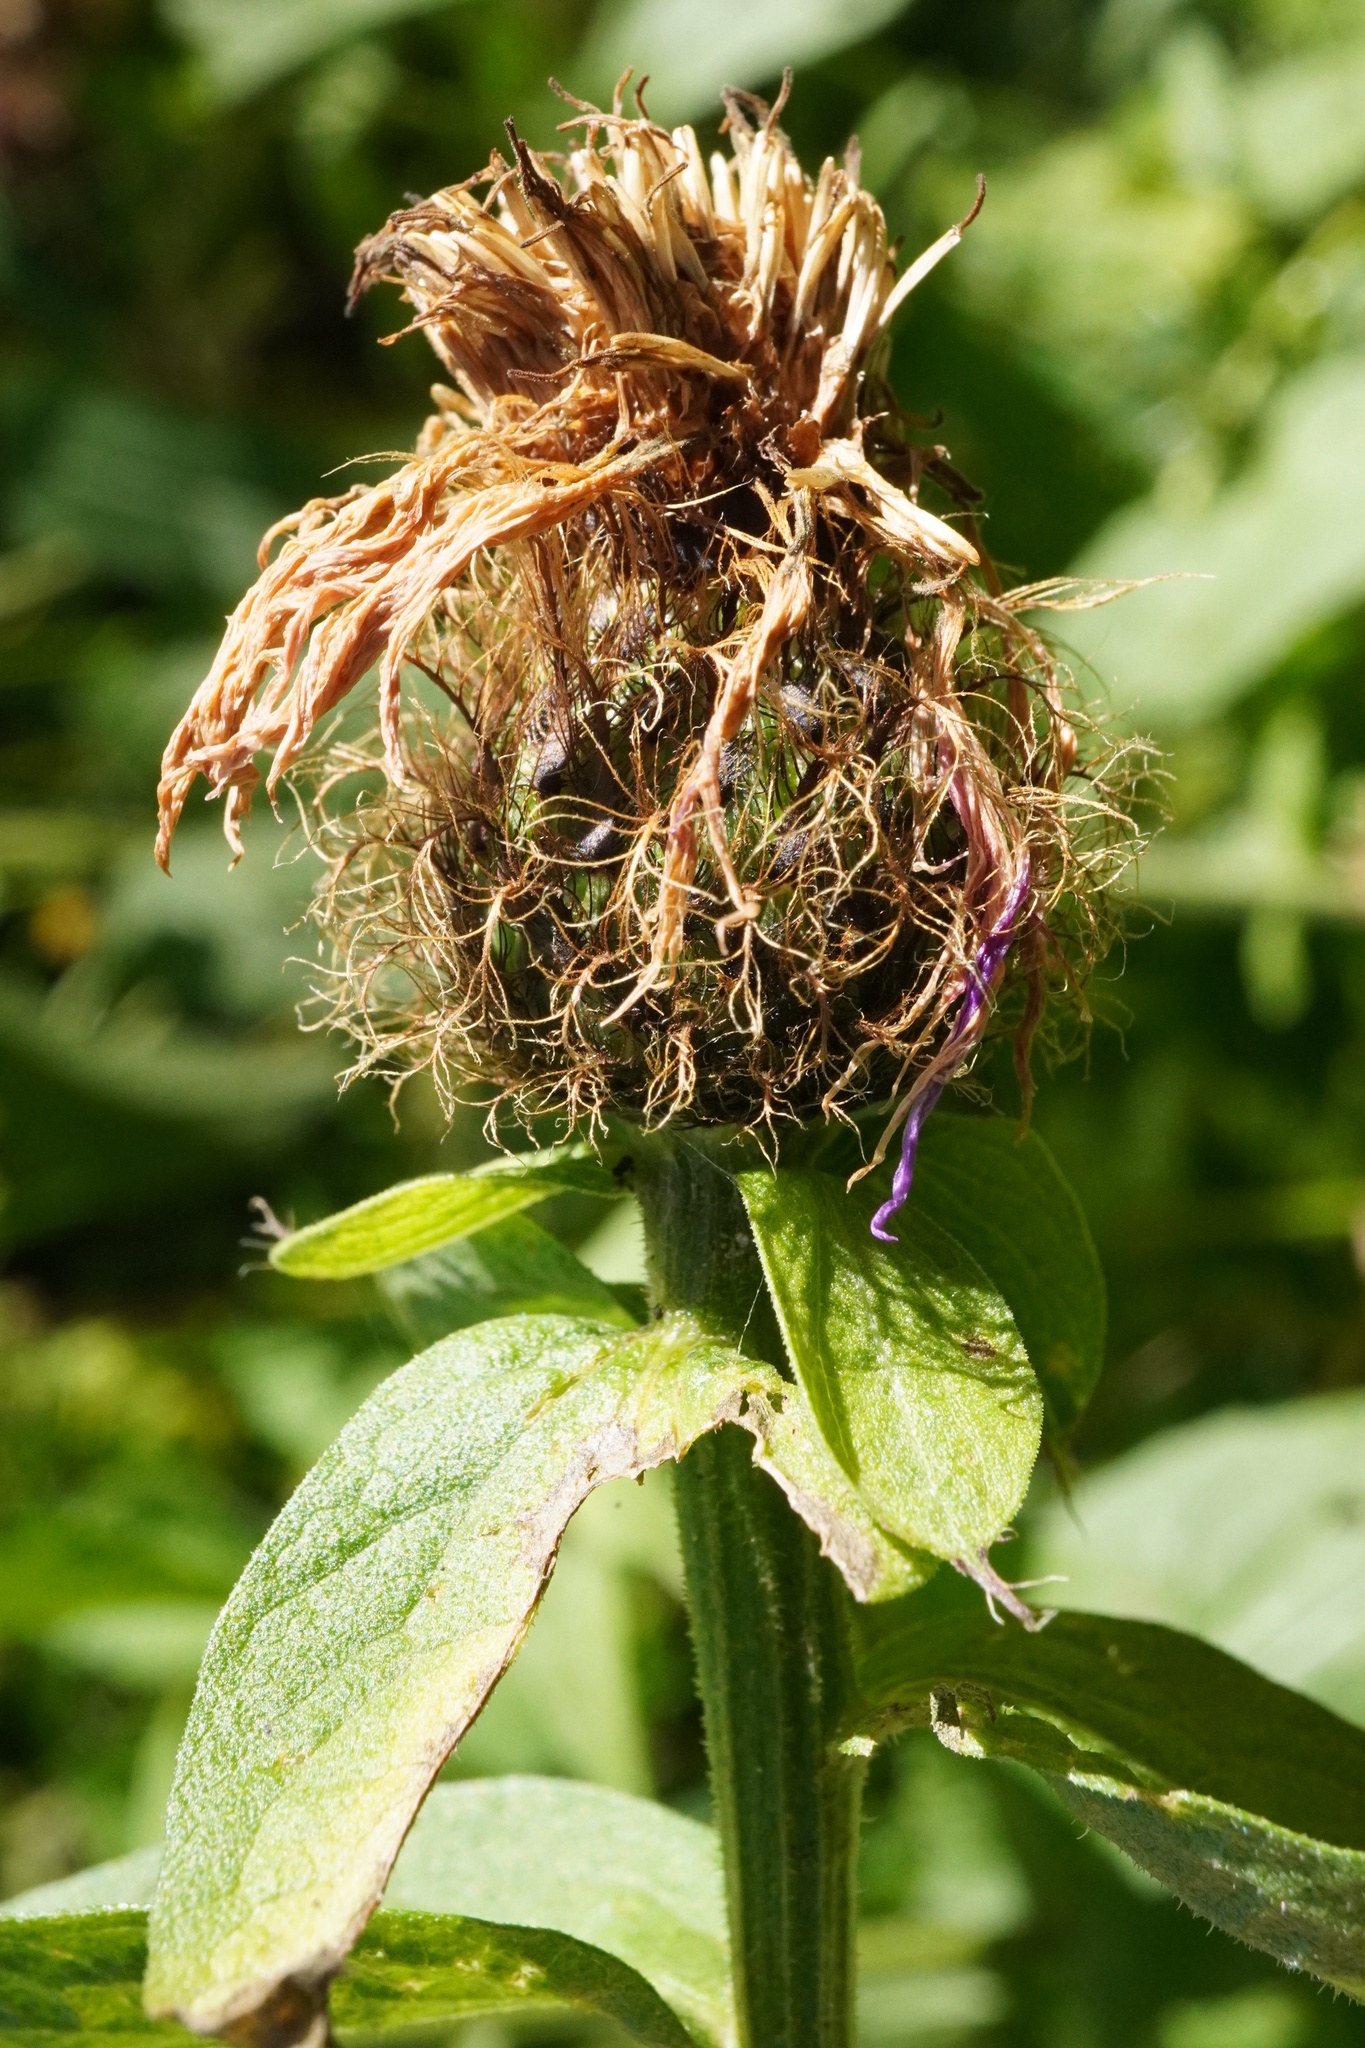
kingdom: Plantae
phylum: Tracheophyta
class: Magnoliopsida
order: Asterales
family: Asteraceae
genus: Centaurea
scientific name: Centaurea pseudophrygia
